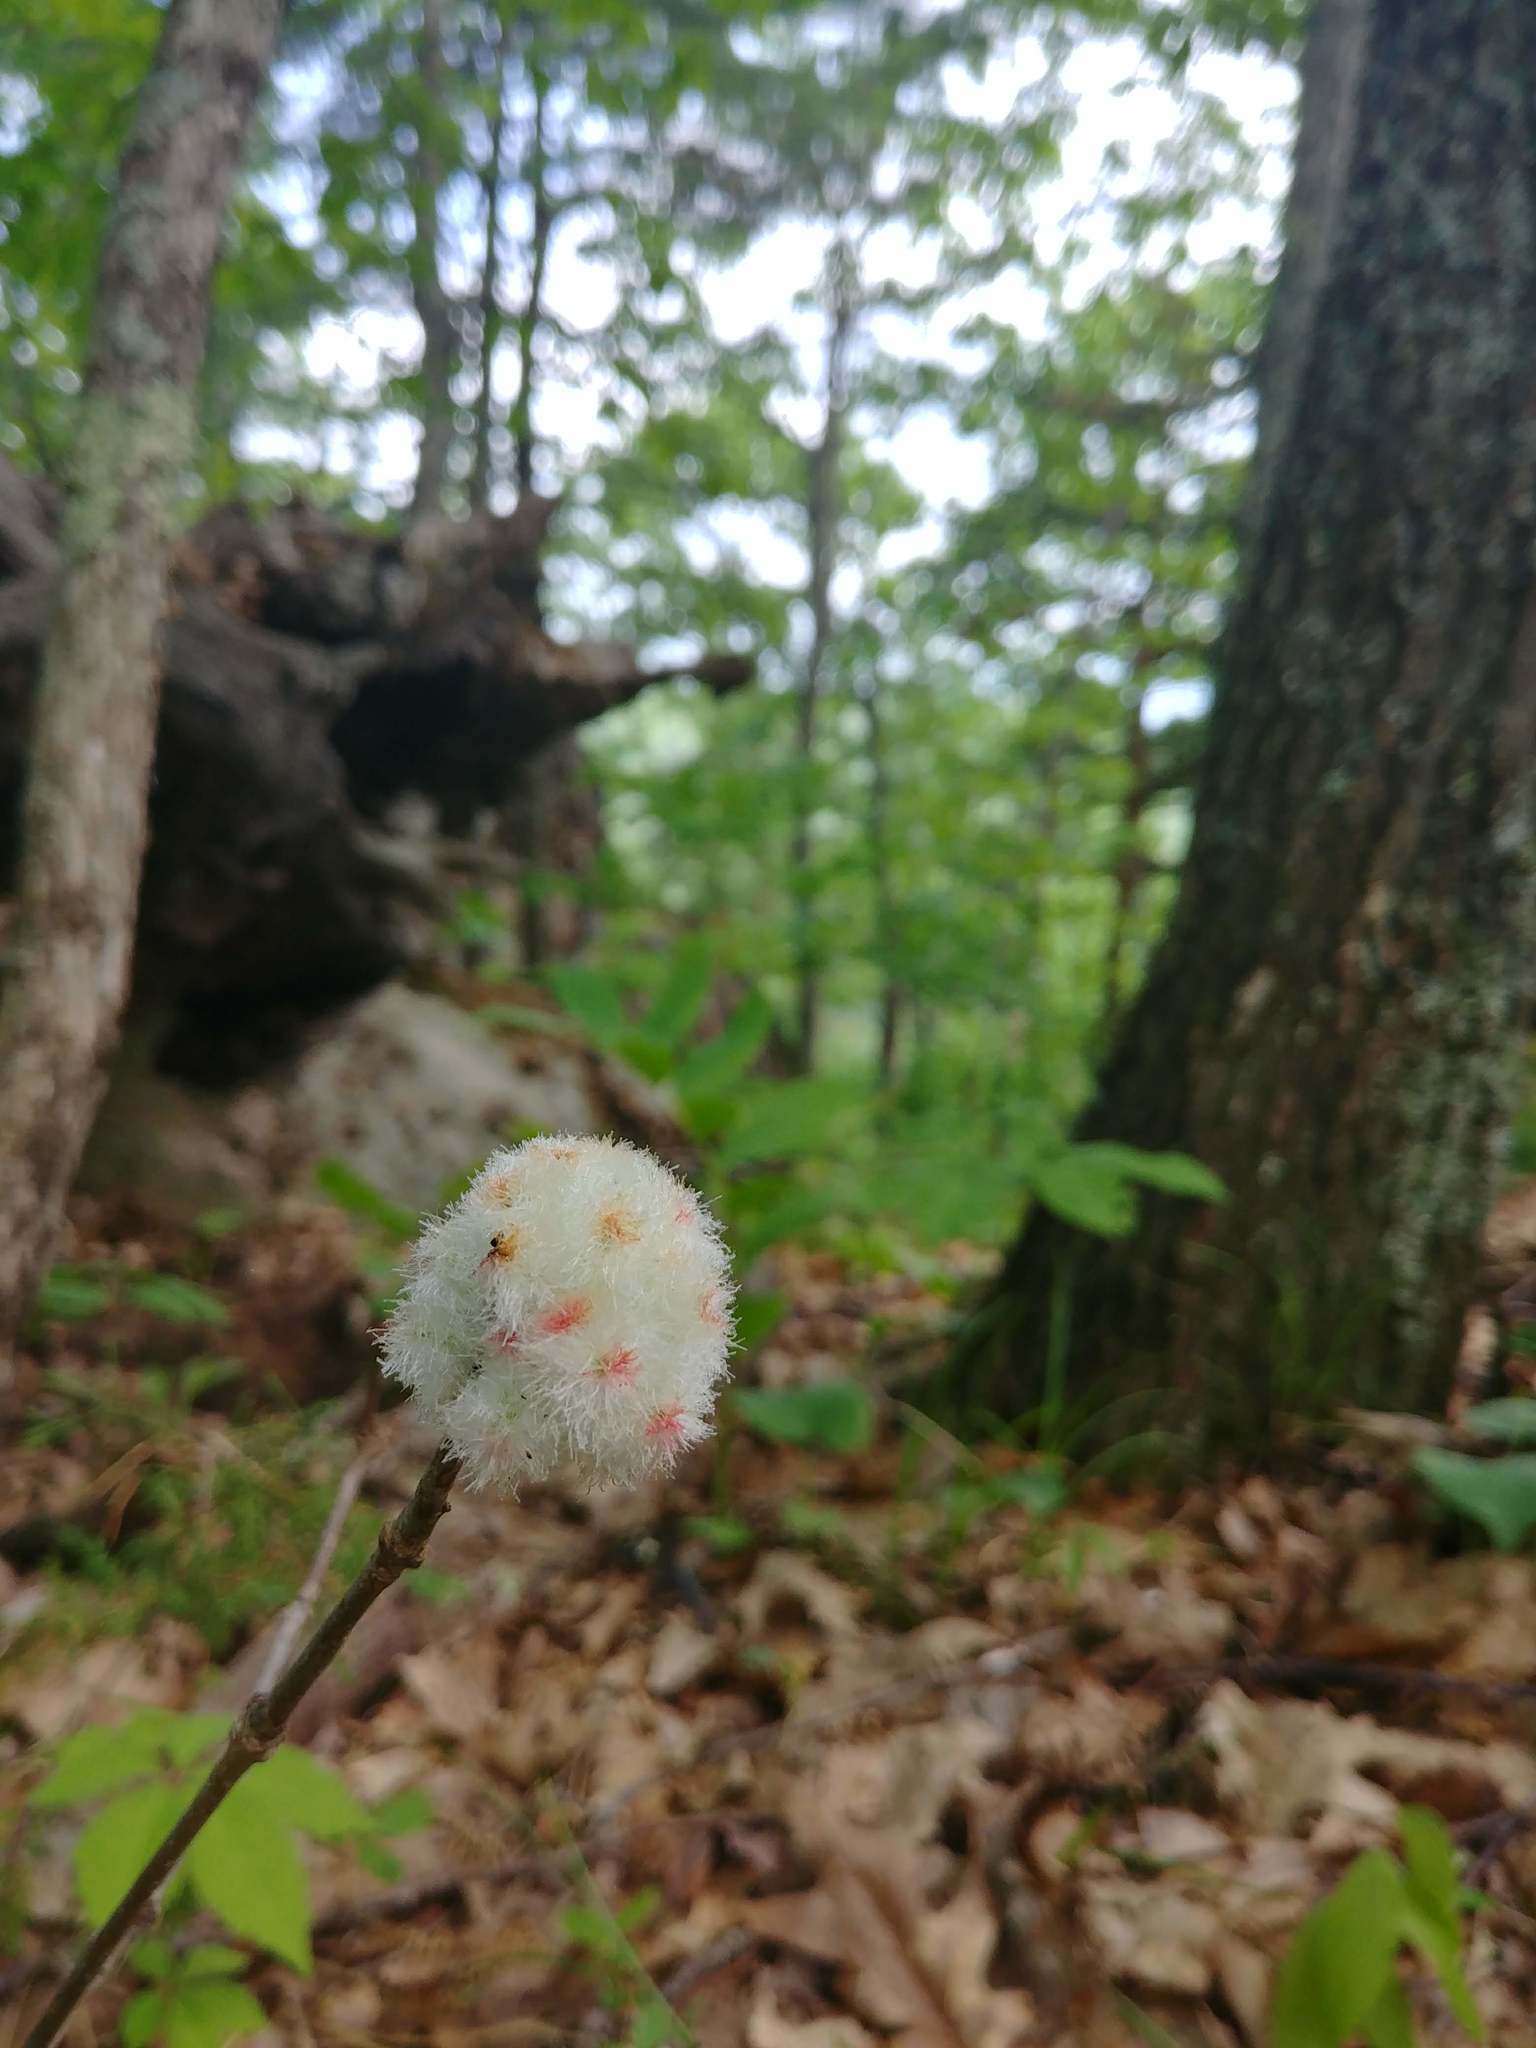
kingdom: Animalia
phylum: Arthropoda
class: Insecta
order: Hymenoptera
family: Cynipidae
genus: Callirhytis
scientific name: Callirhytis
